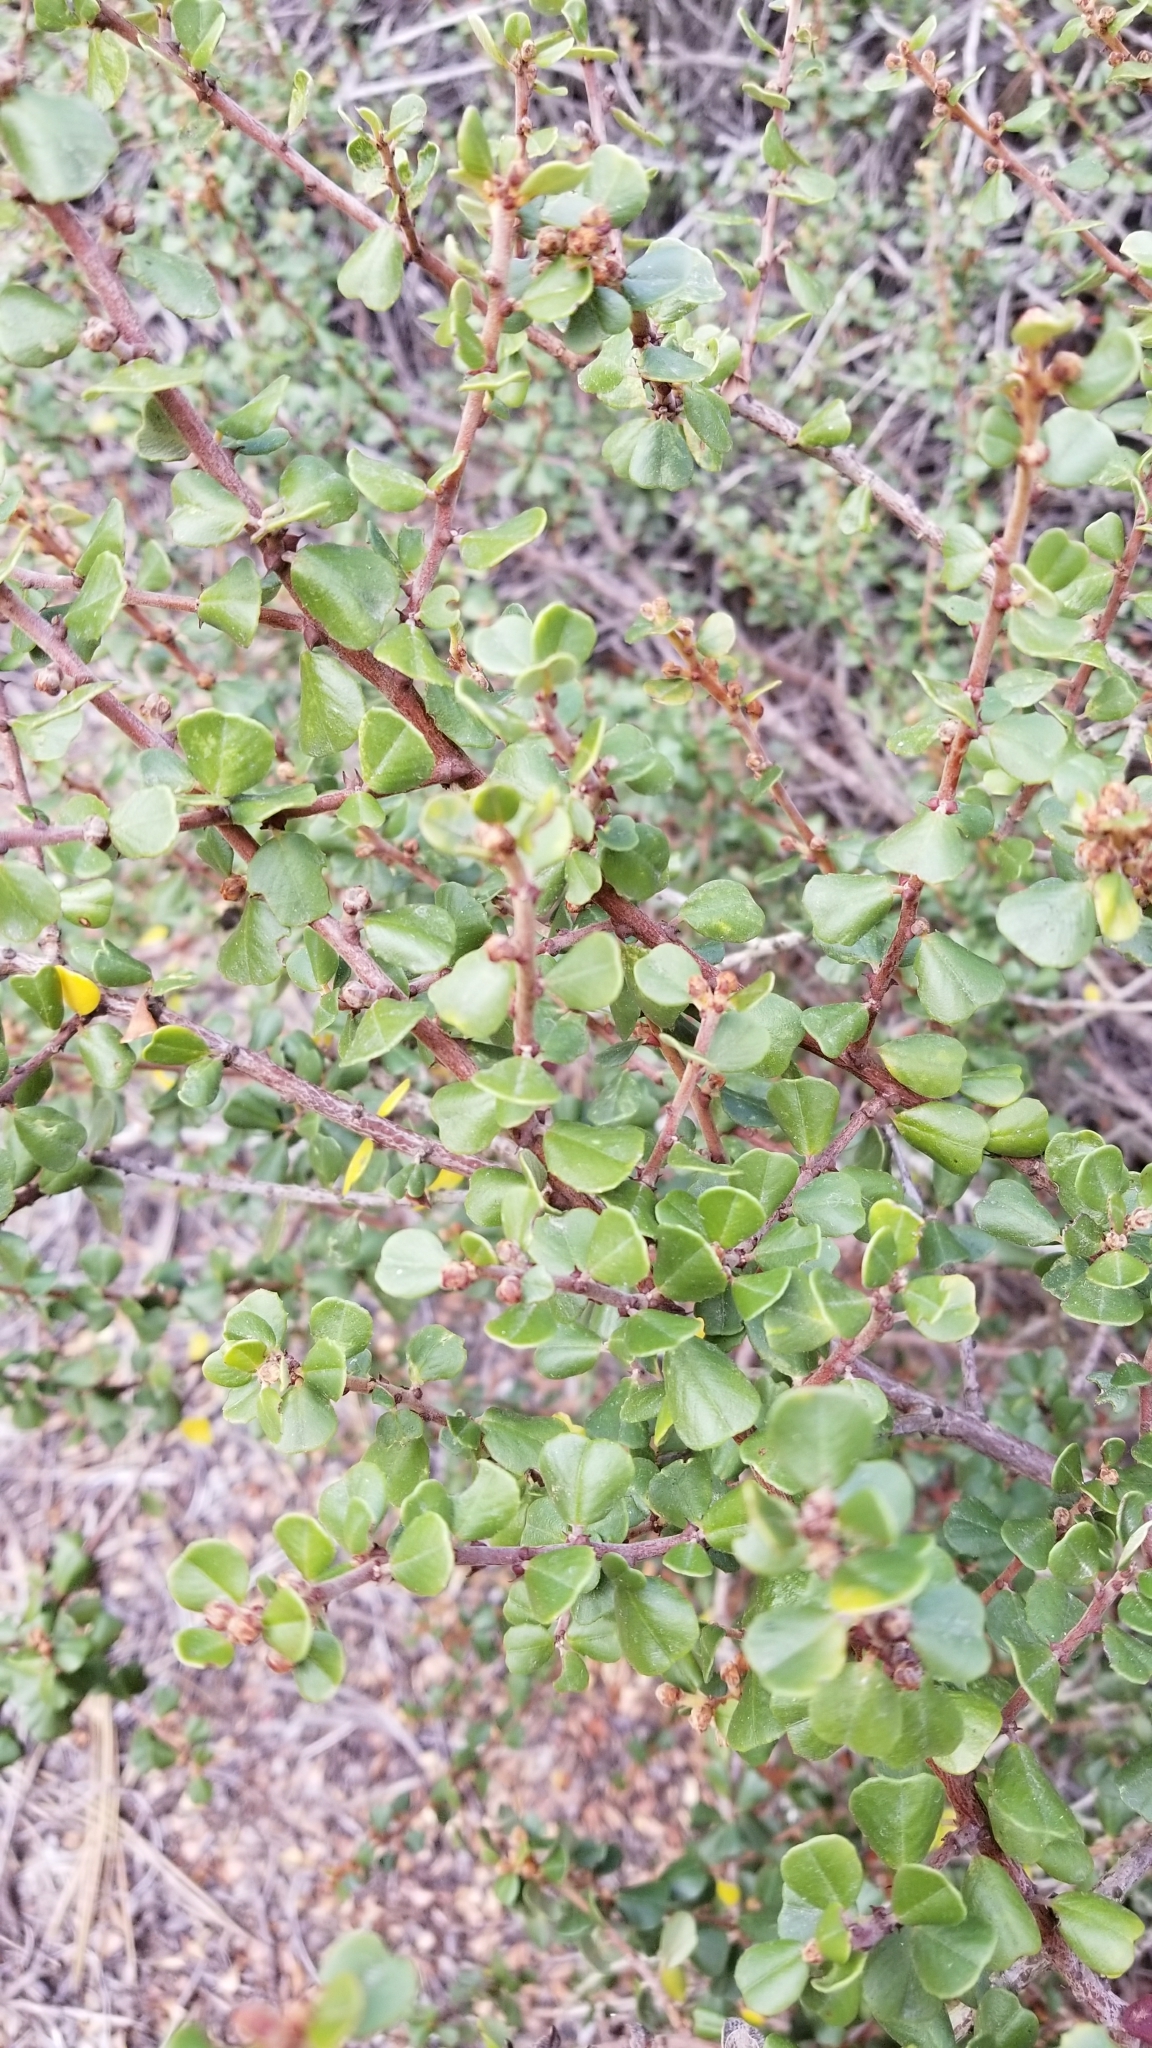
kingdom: Plantae
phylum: Tracheophyta
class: Magnoliopsida
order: Rosales
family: Rhamnaceae
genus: Ceanothus
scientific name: Ceanothus verrucosus
